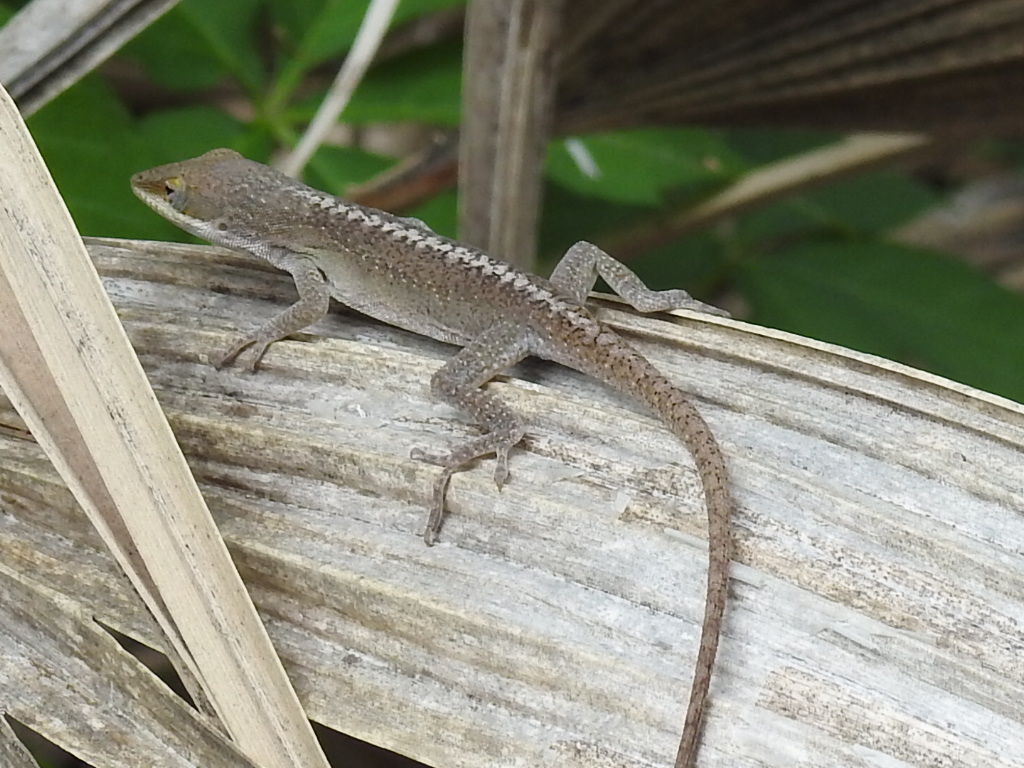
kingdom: Animalia
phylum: Chordata
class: Squamata
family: Dactyloidae
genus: Anolis
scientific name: Anolis carolinensis
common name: Green anole
